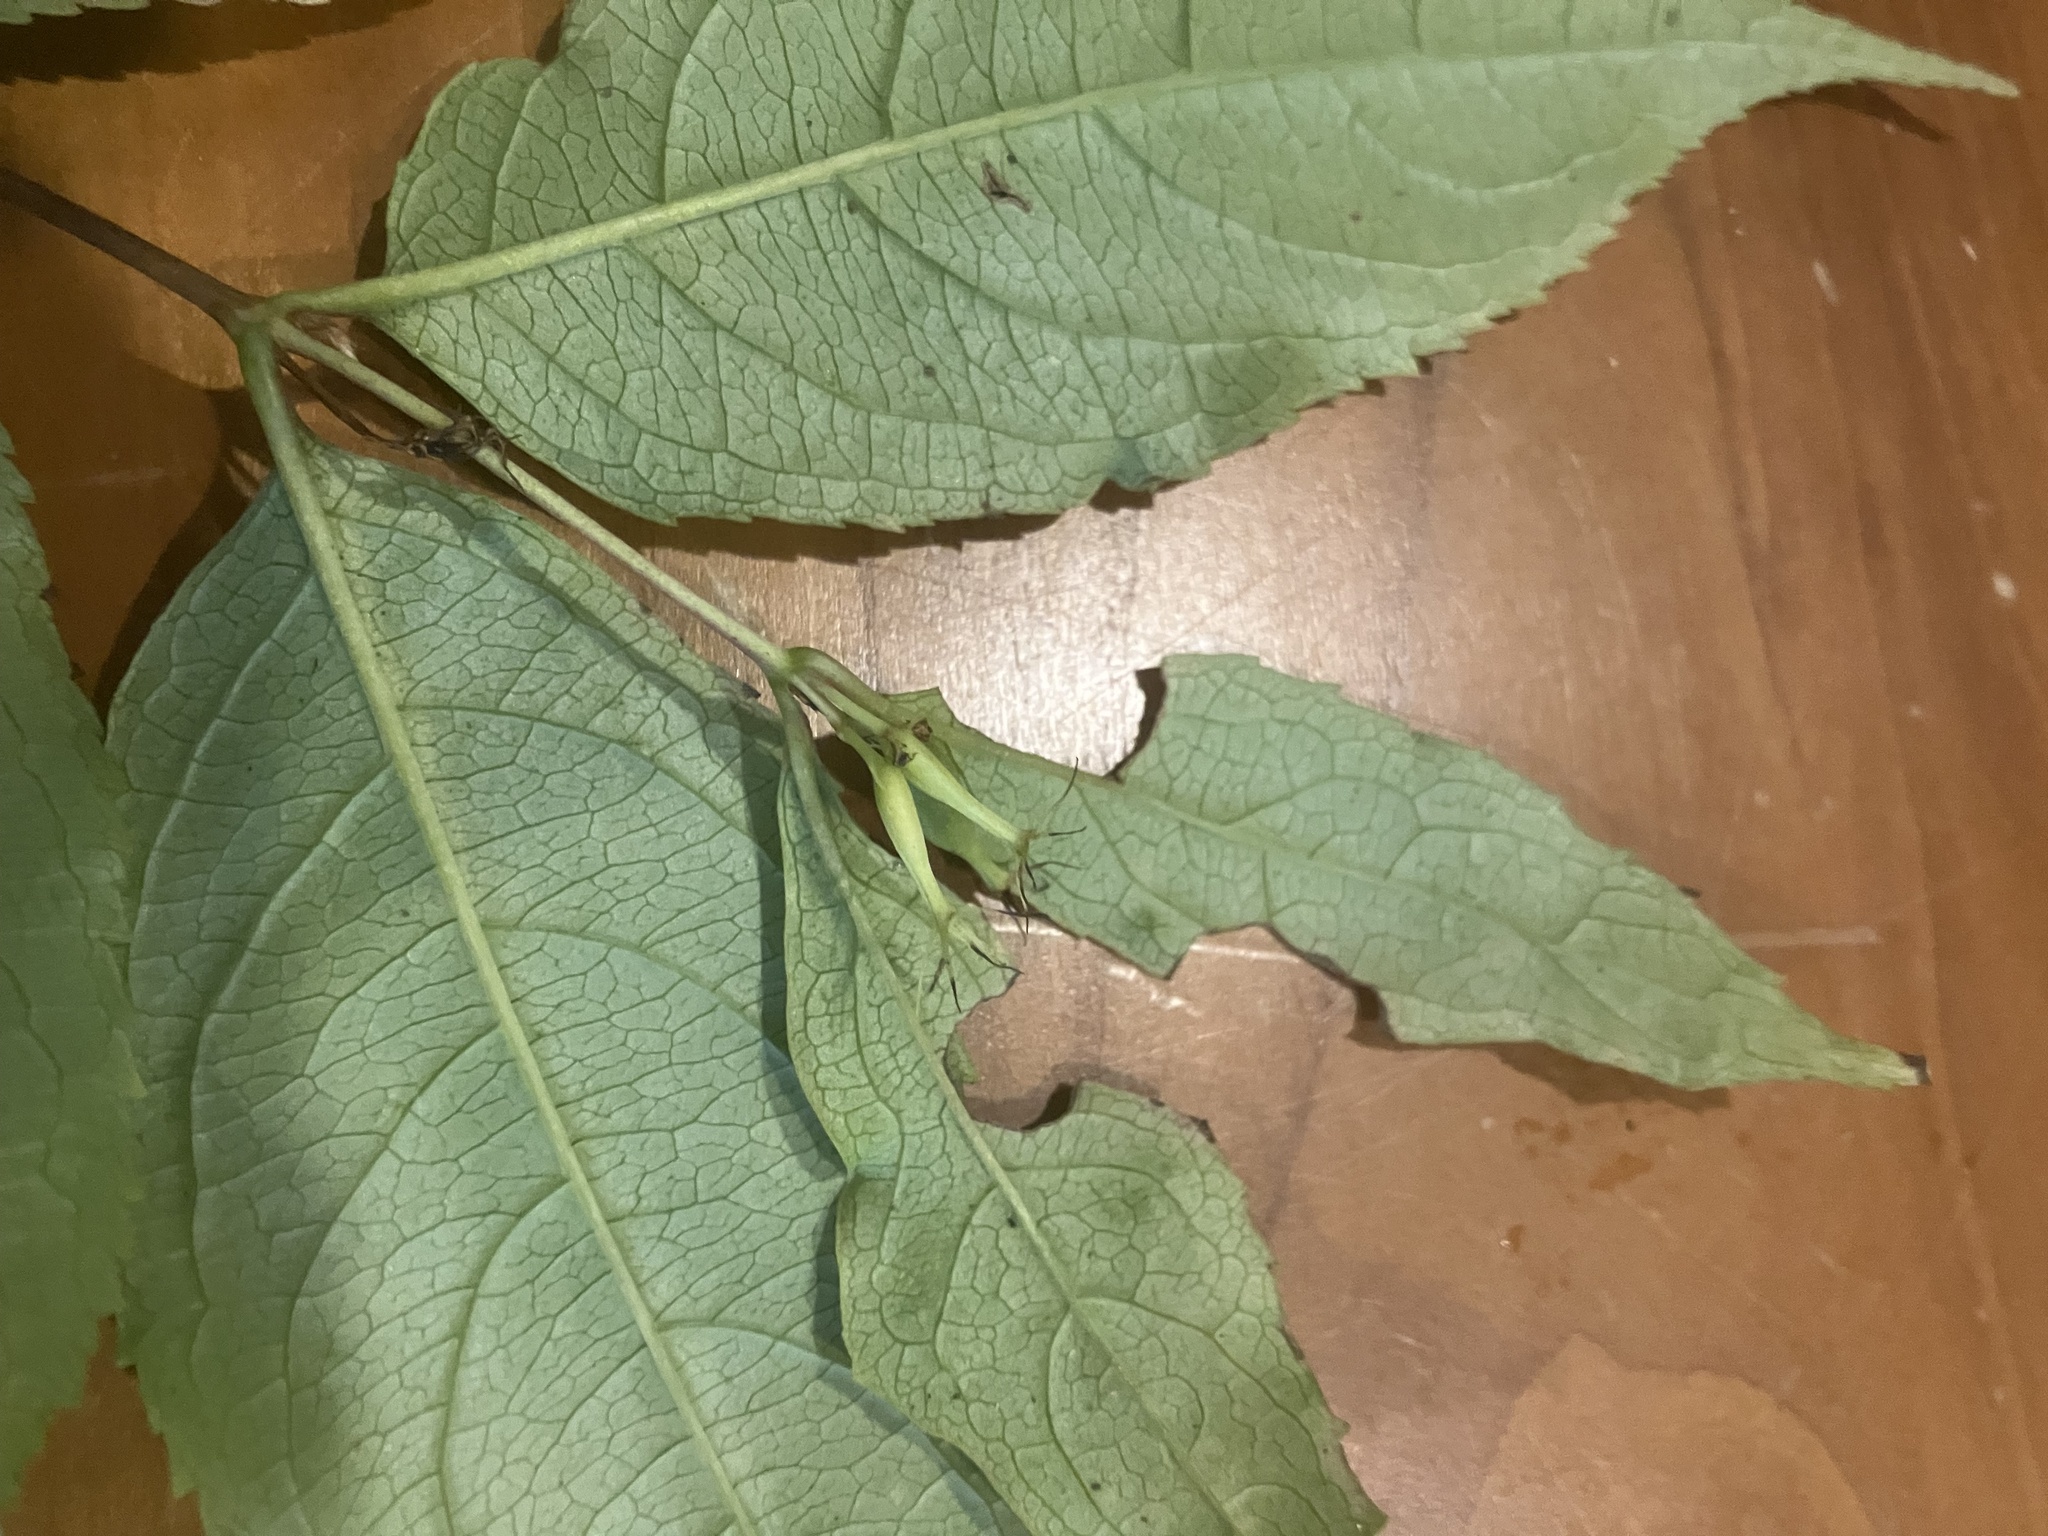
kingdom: Plantae
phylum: Tracheophyta
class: Magnoliopsida
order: Dipsacales
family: Caprifoliaceae
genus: Diervilla
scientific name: Diervilla lonicera
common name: Bush-honeysuckle
